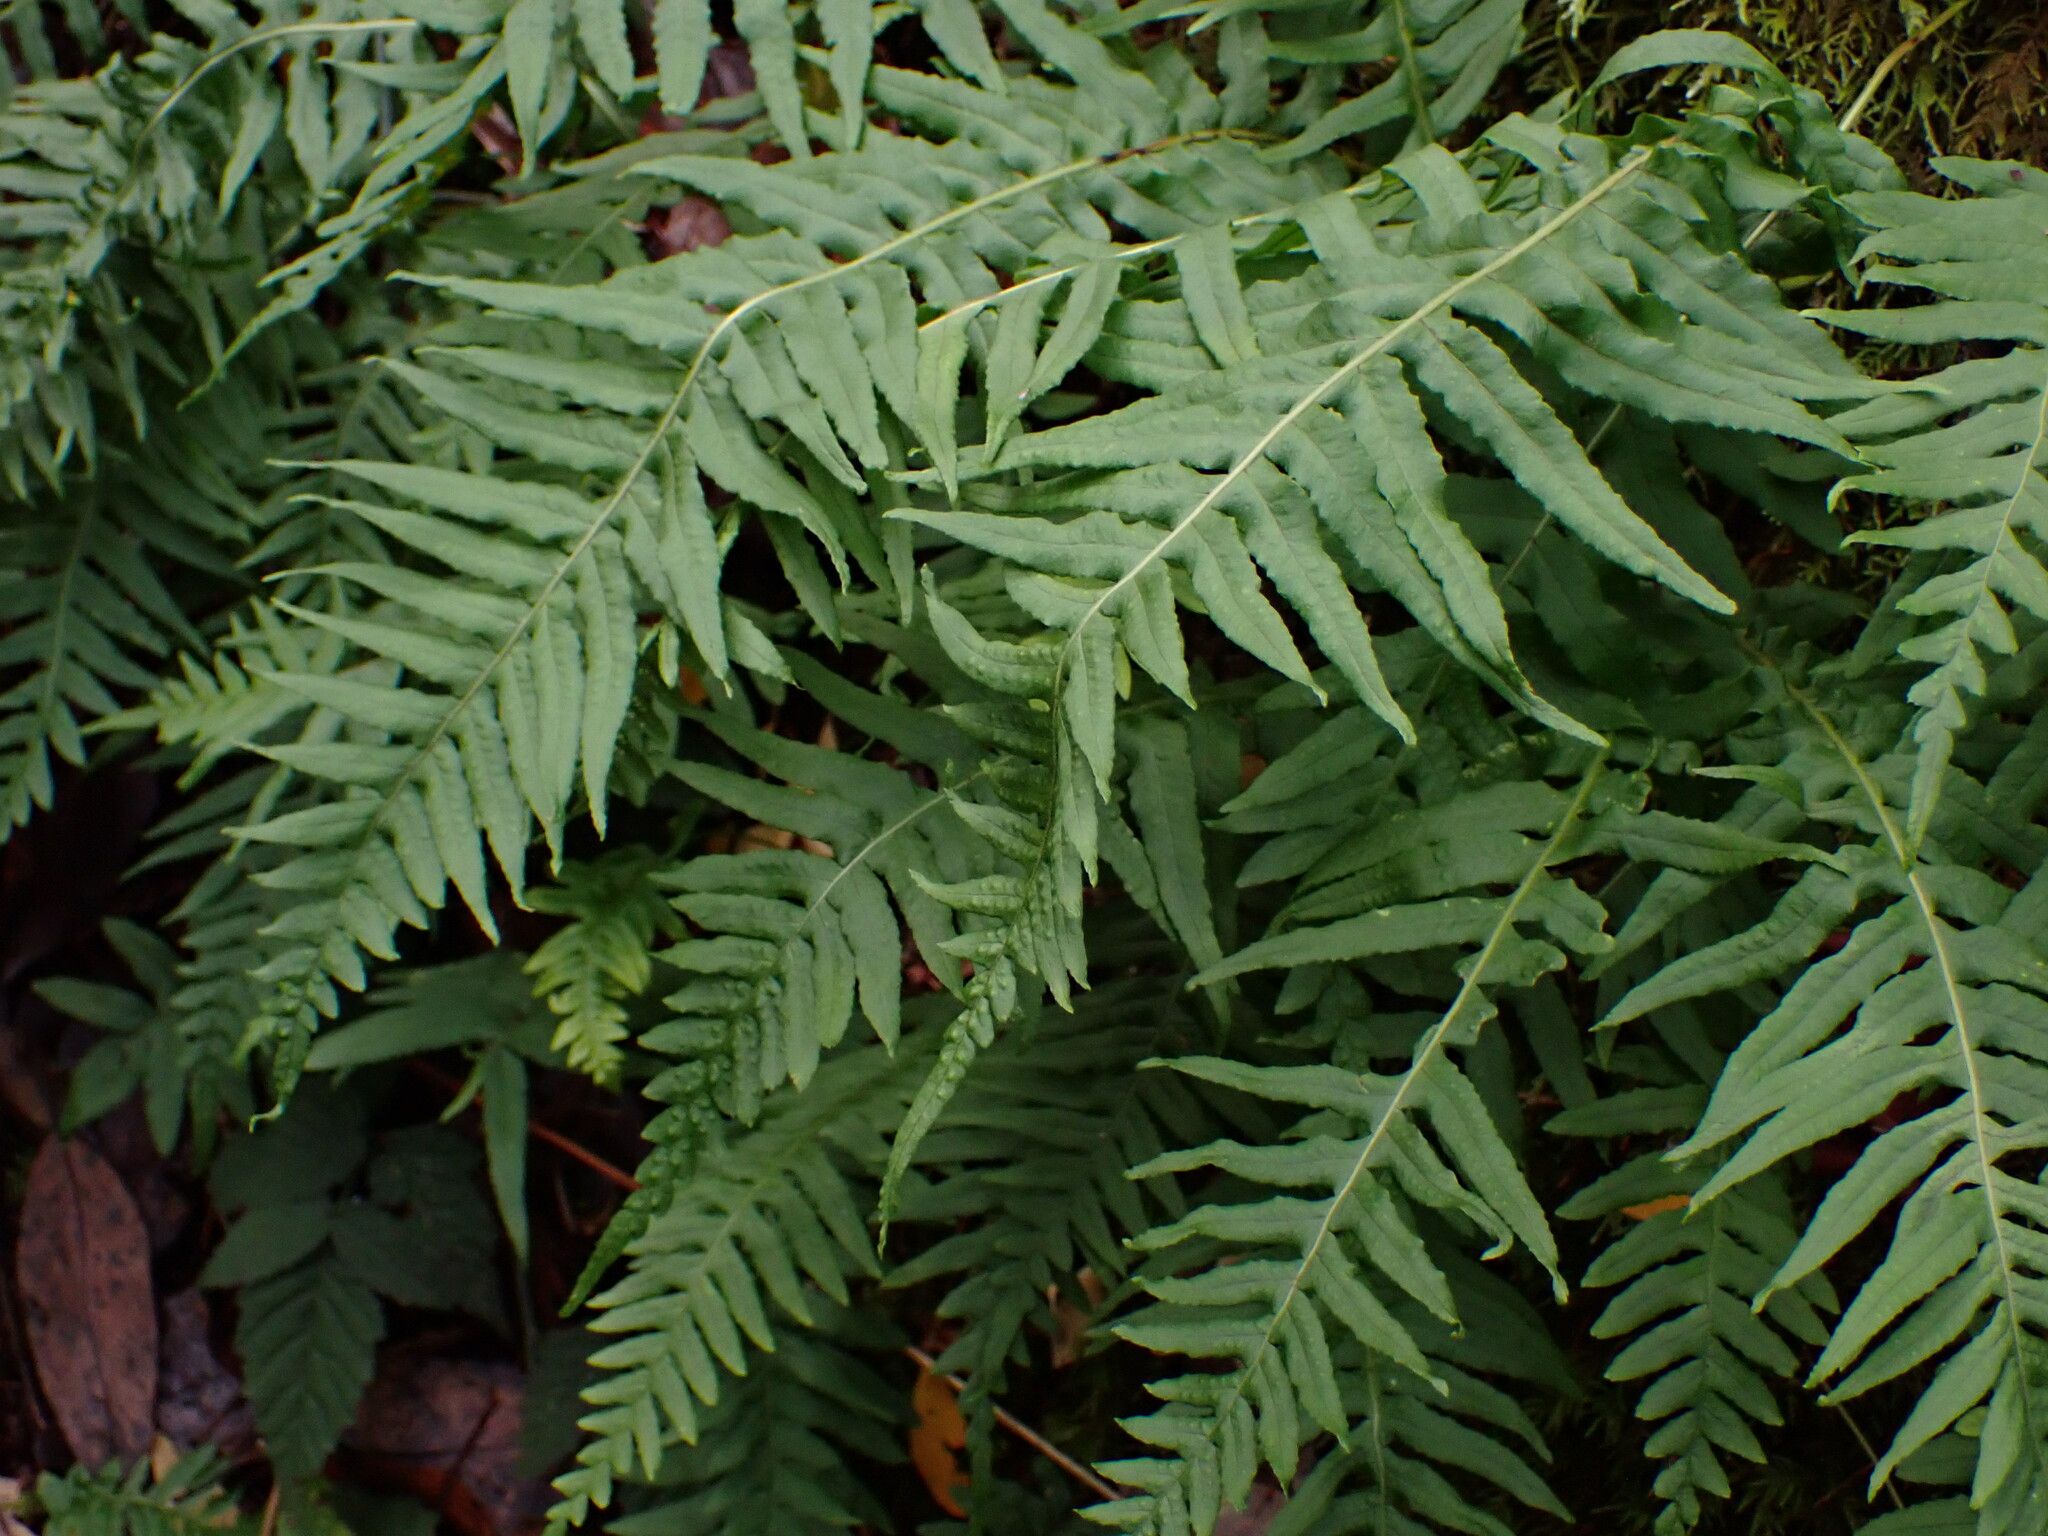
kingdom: Plantae
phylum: Tracheophyta
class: Polypodiopsida
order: Polypodiales
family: Polypodiaceae
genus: Polypodium
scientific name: Polypodium glycyrrhiza
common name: Licorice fern
